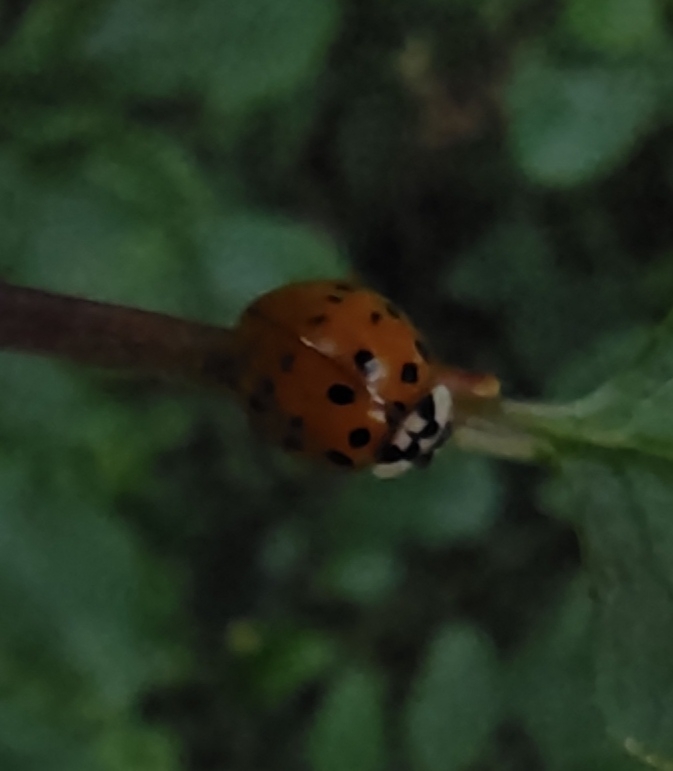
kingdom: Animalia
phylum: Arthropoda
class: Insecta
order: Coleoptera
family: Coccinellidae
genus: Harmonia
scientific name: Harmonia axyridis
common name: Harlequin ladybird
